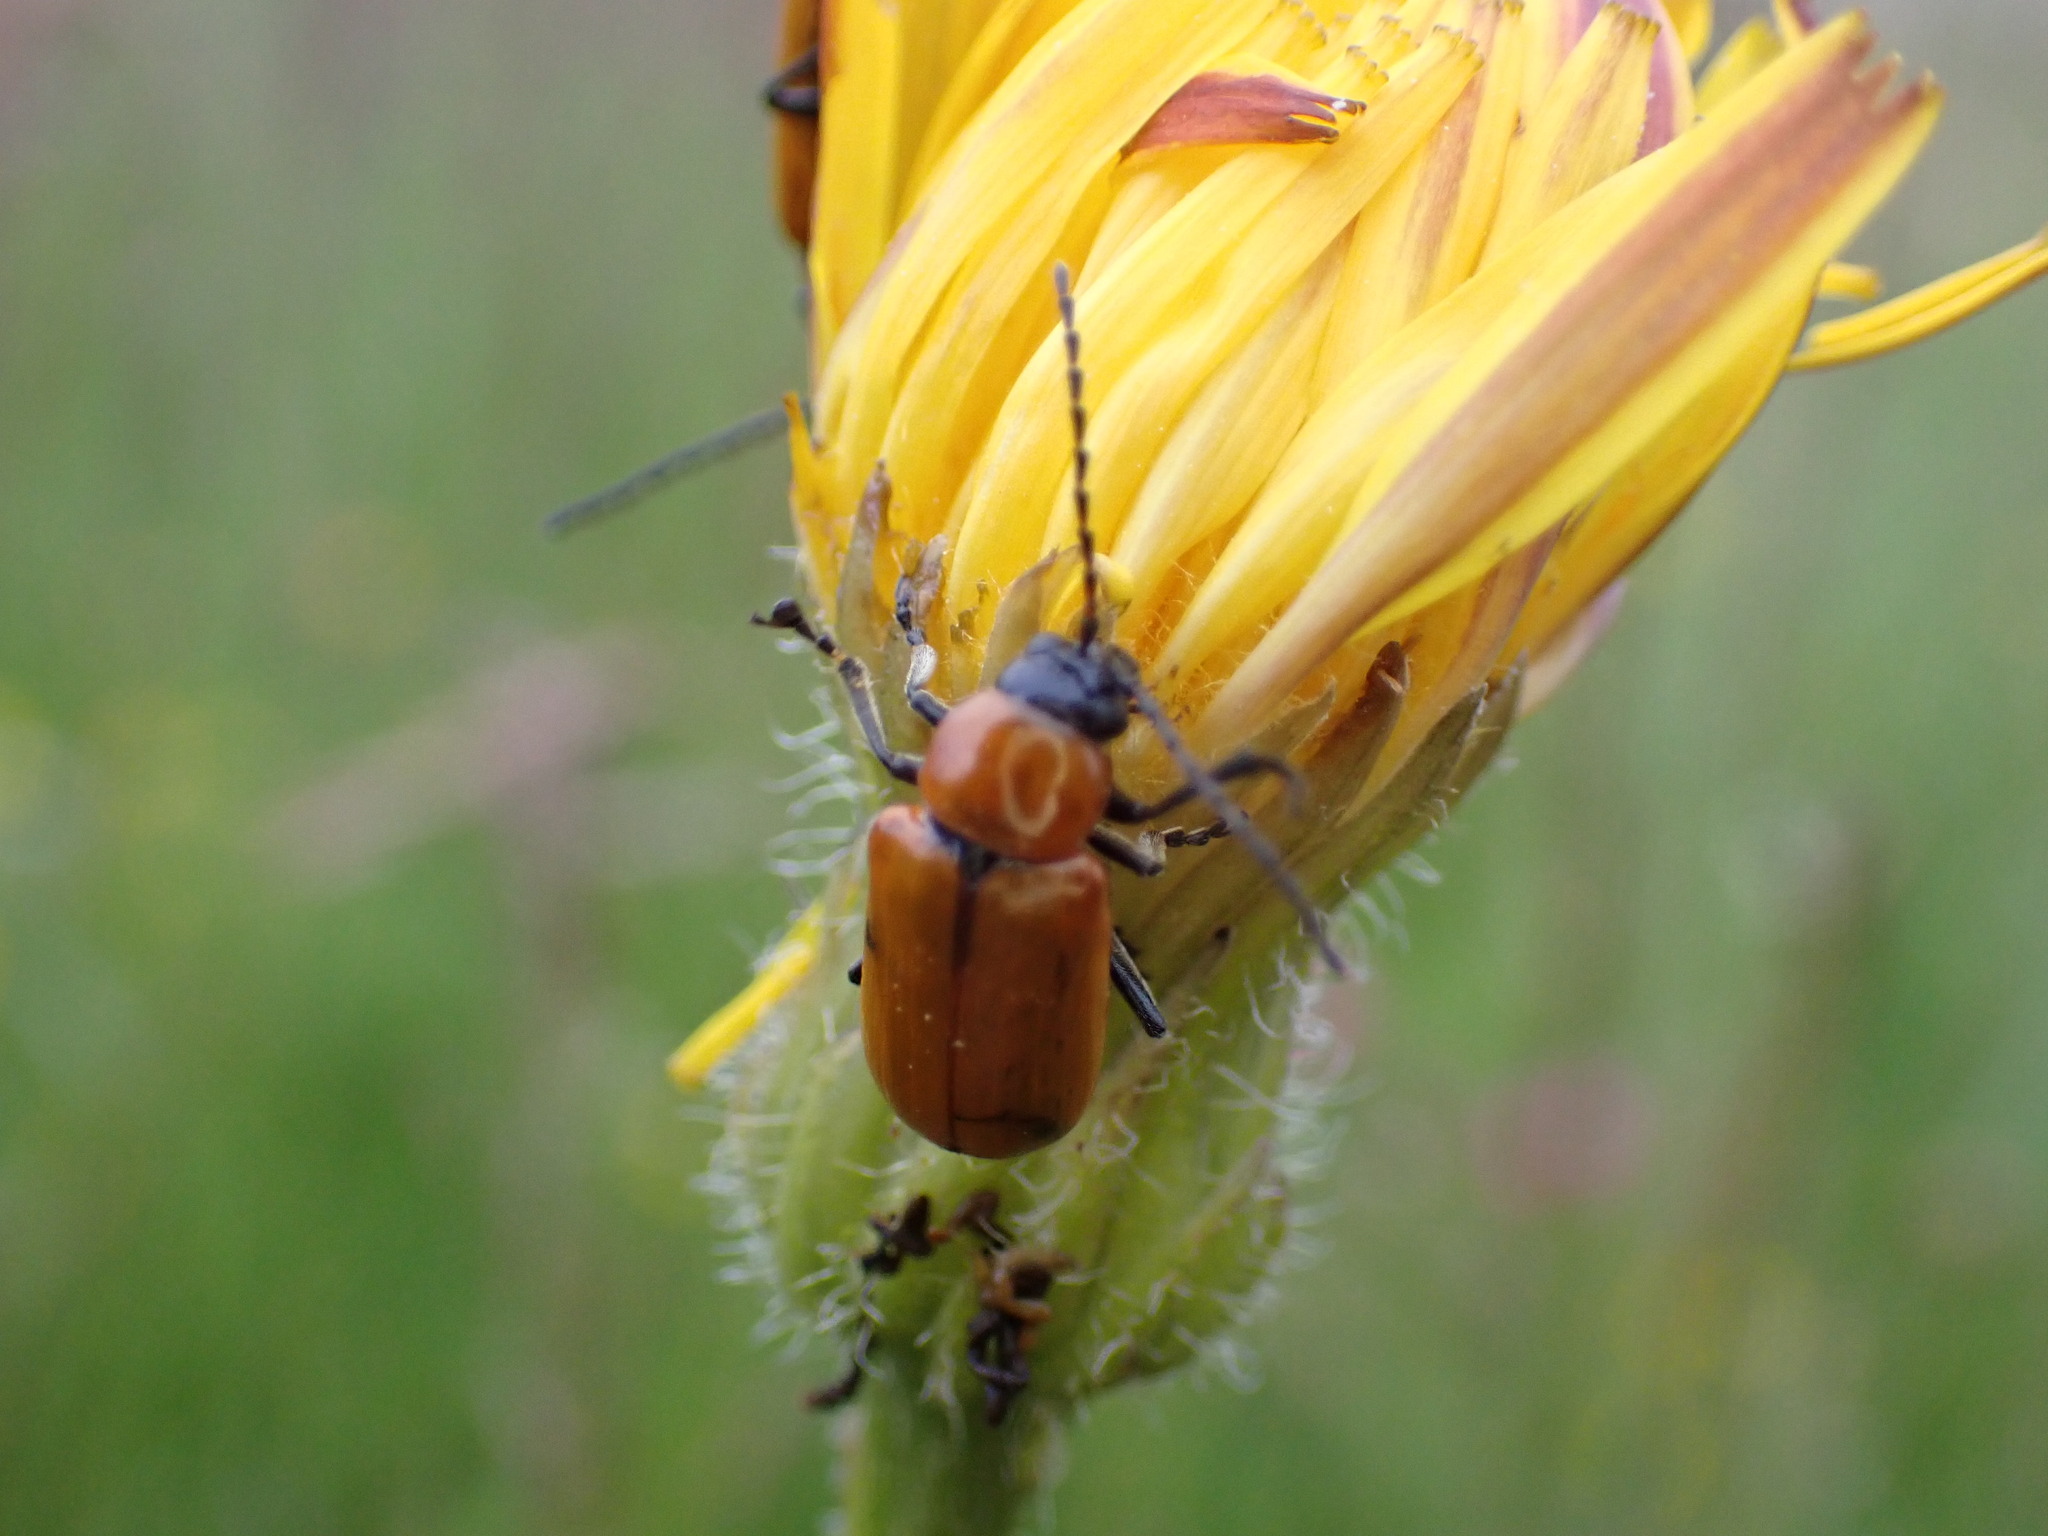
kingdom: Animalia
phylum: Arthropoda
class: Insecta
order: Coleoptera
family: Chrysomelidae
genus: Exosoma
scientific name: Exosoma lusitanicum
